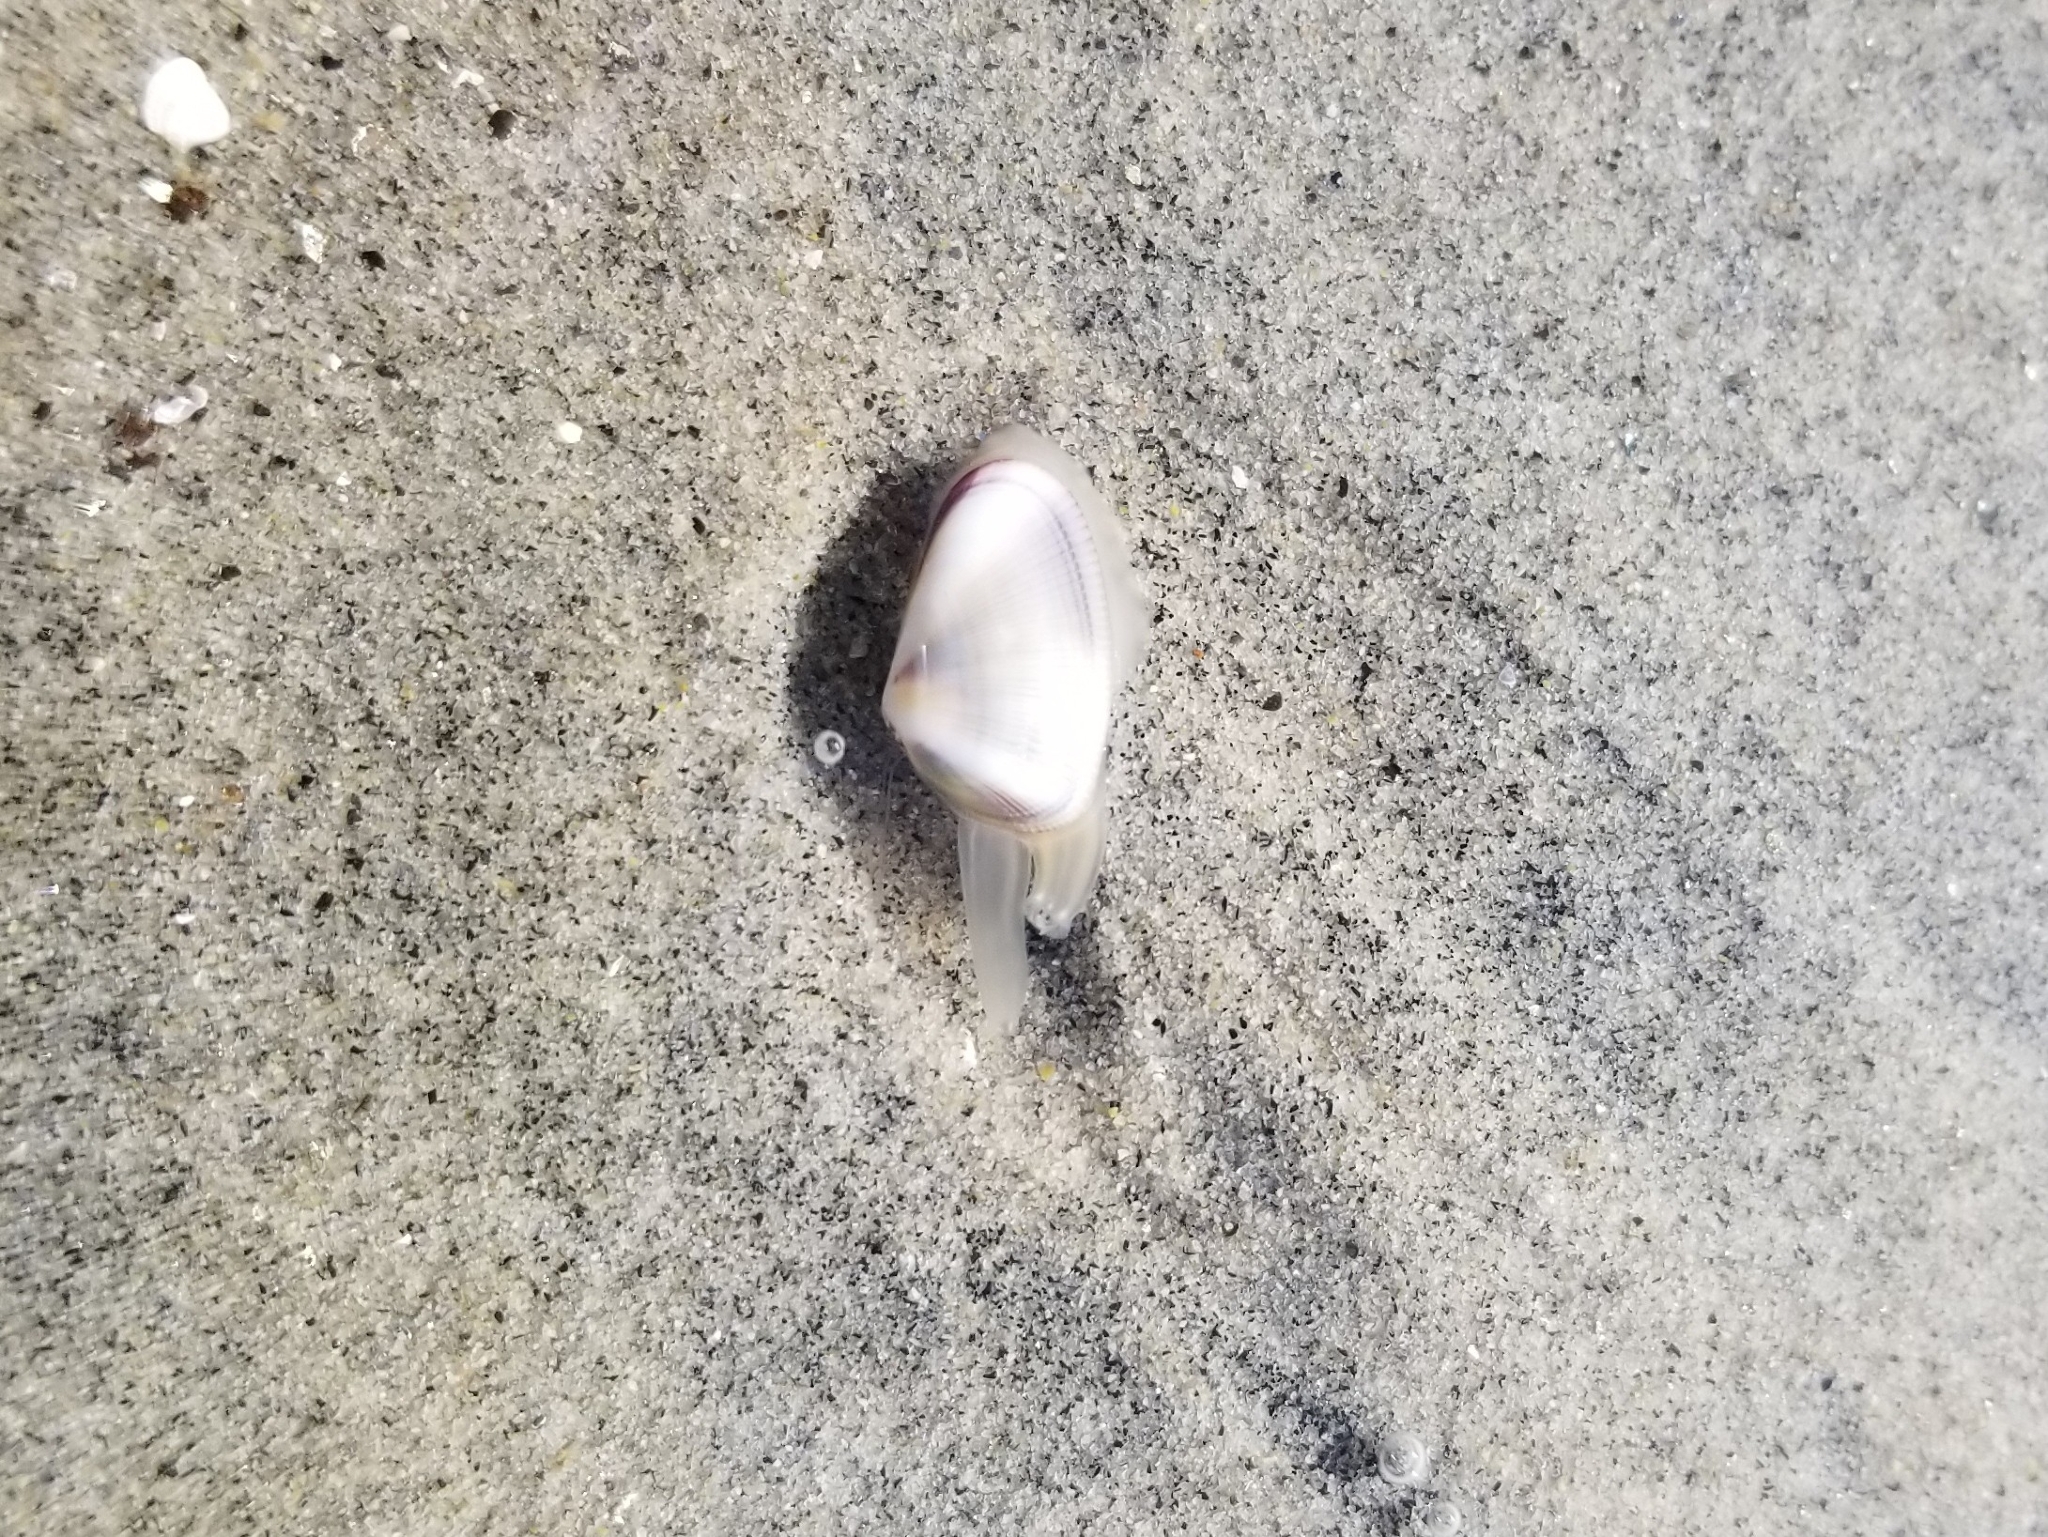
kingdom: Animalia
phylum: Mollusca
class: Bivalvia
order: Cardiida
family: Donacidae
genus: Donax
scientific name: Donax gouldii
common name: Gould beanclam
